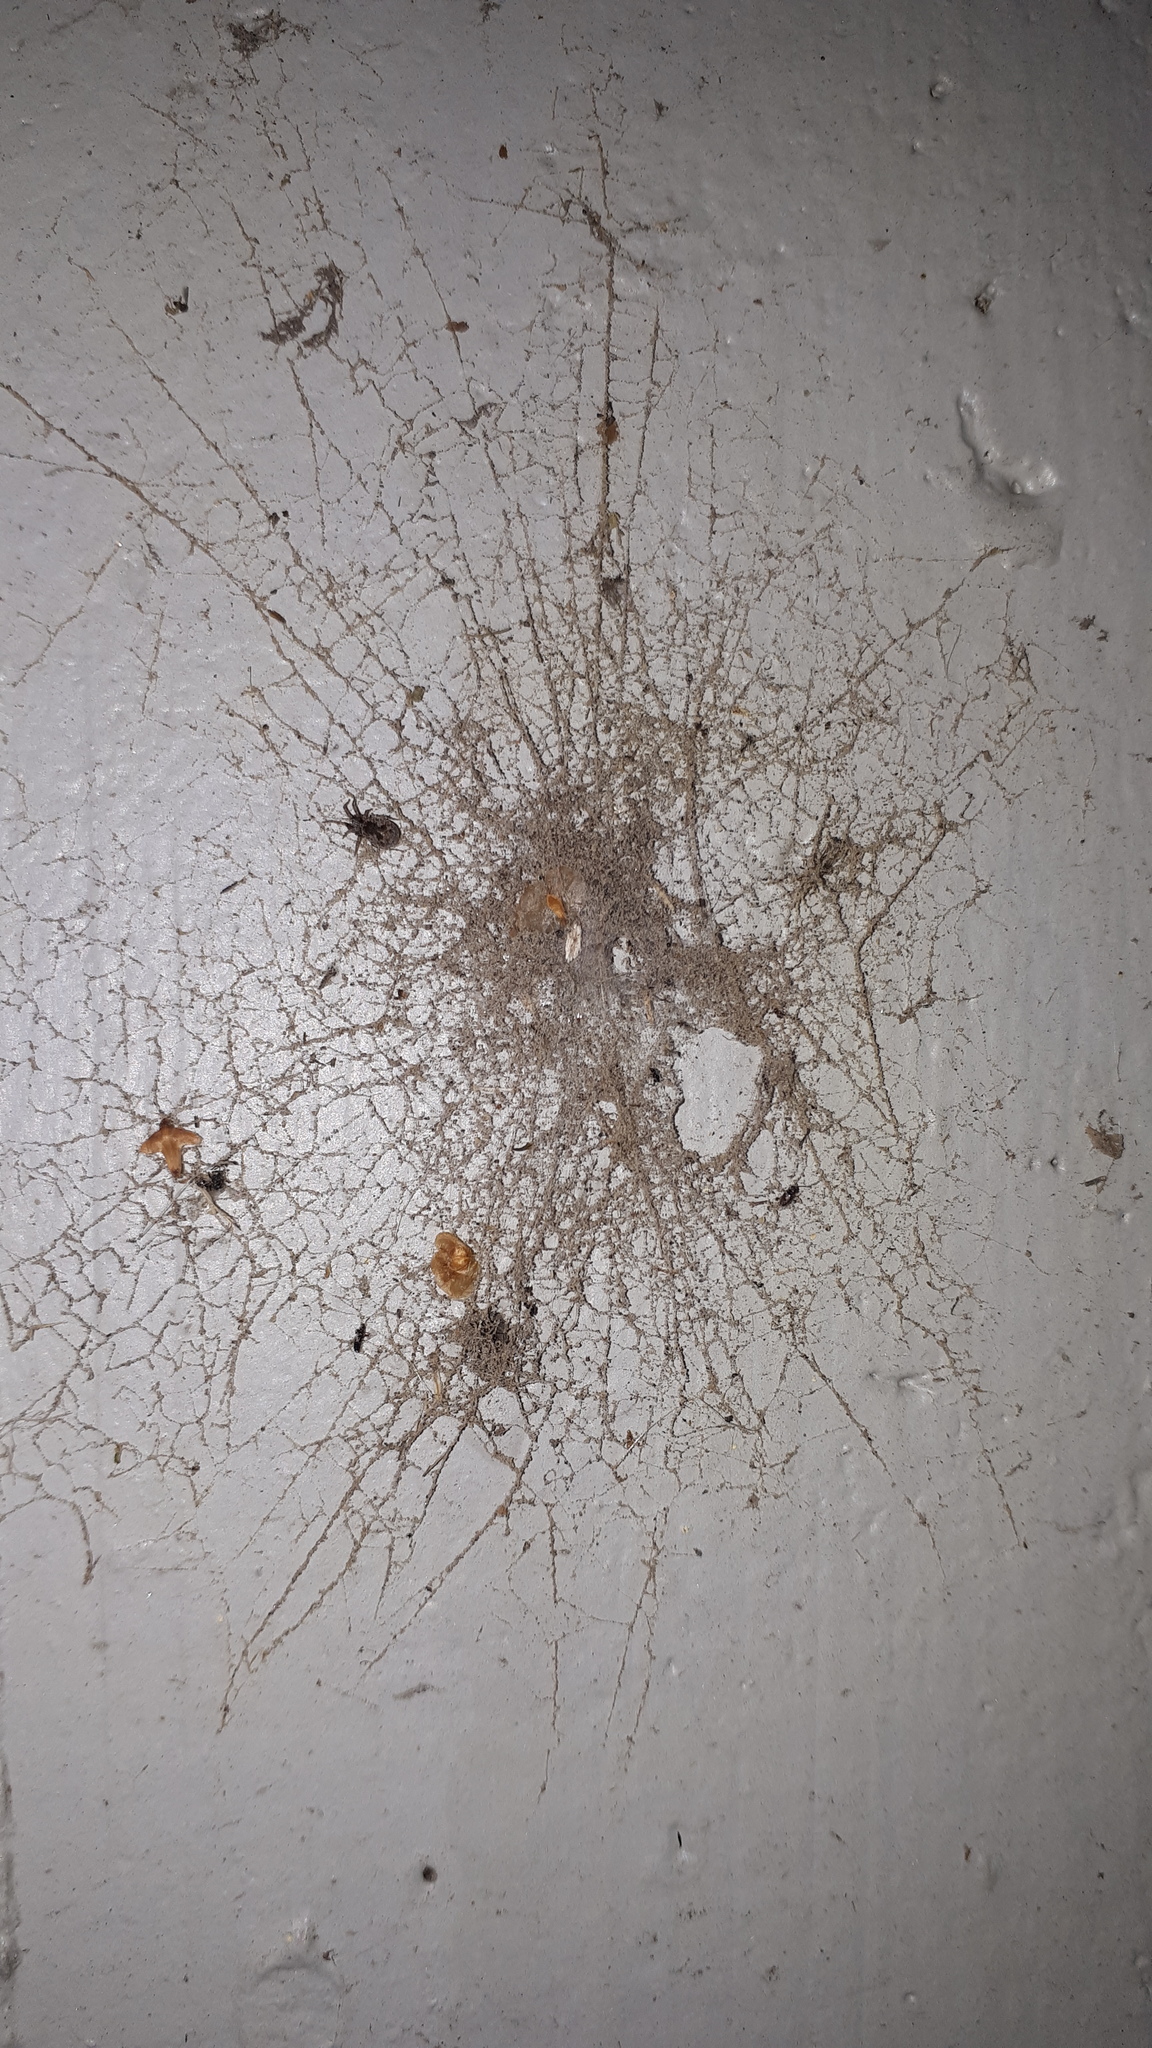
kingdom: Animalia
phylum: Arthropoda
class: Arachnida
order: Araneae
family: Dictynidae
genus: Brigittea
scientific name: Brigittea civica
